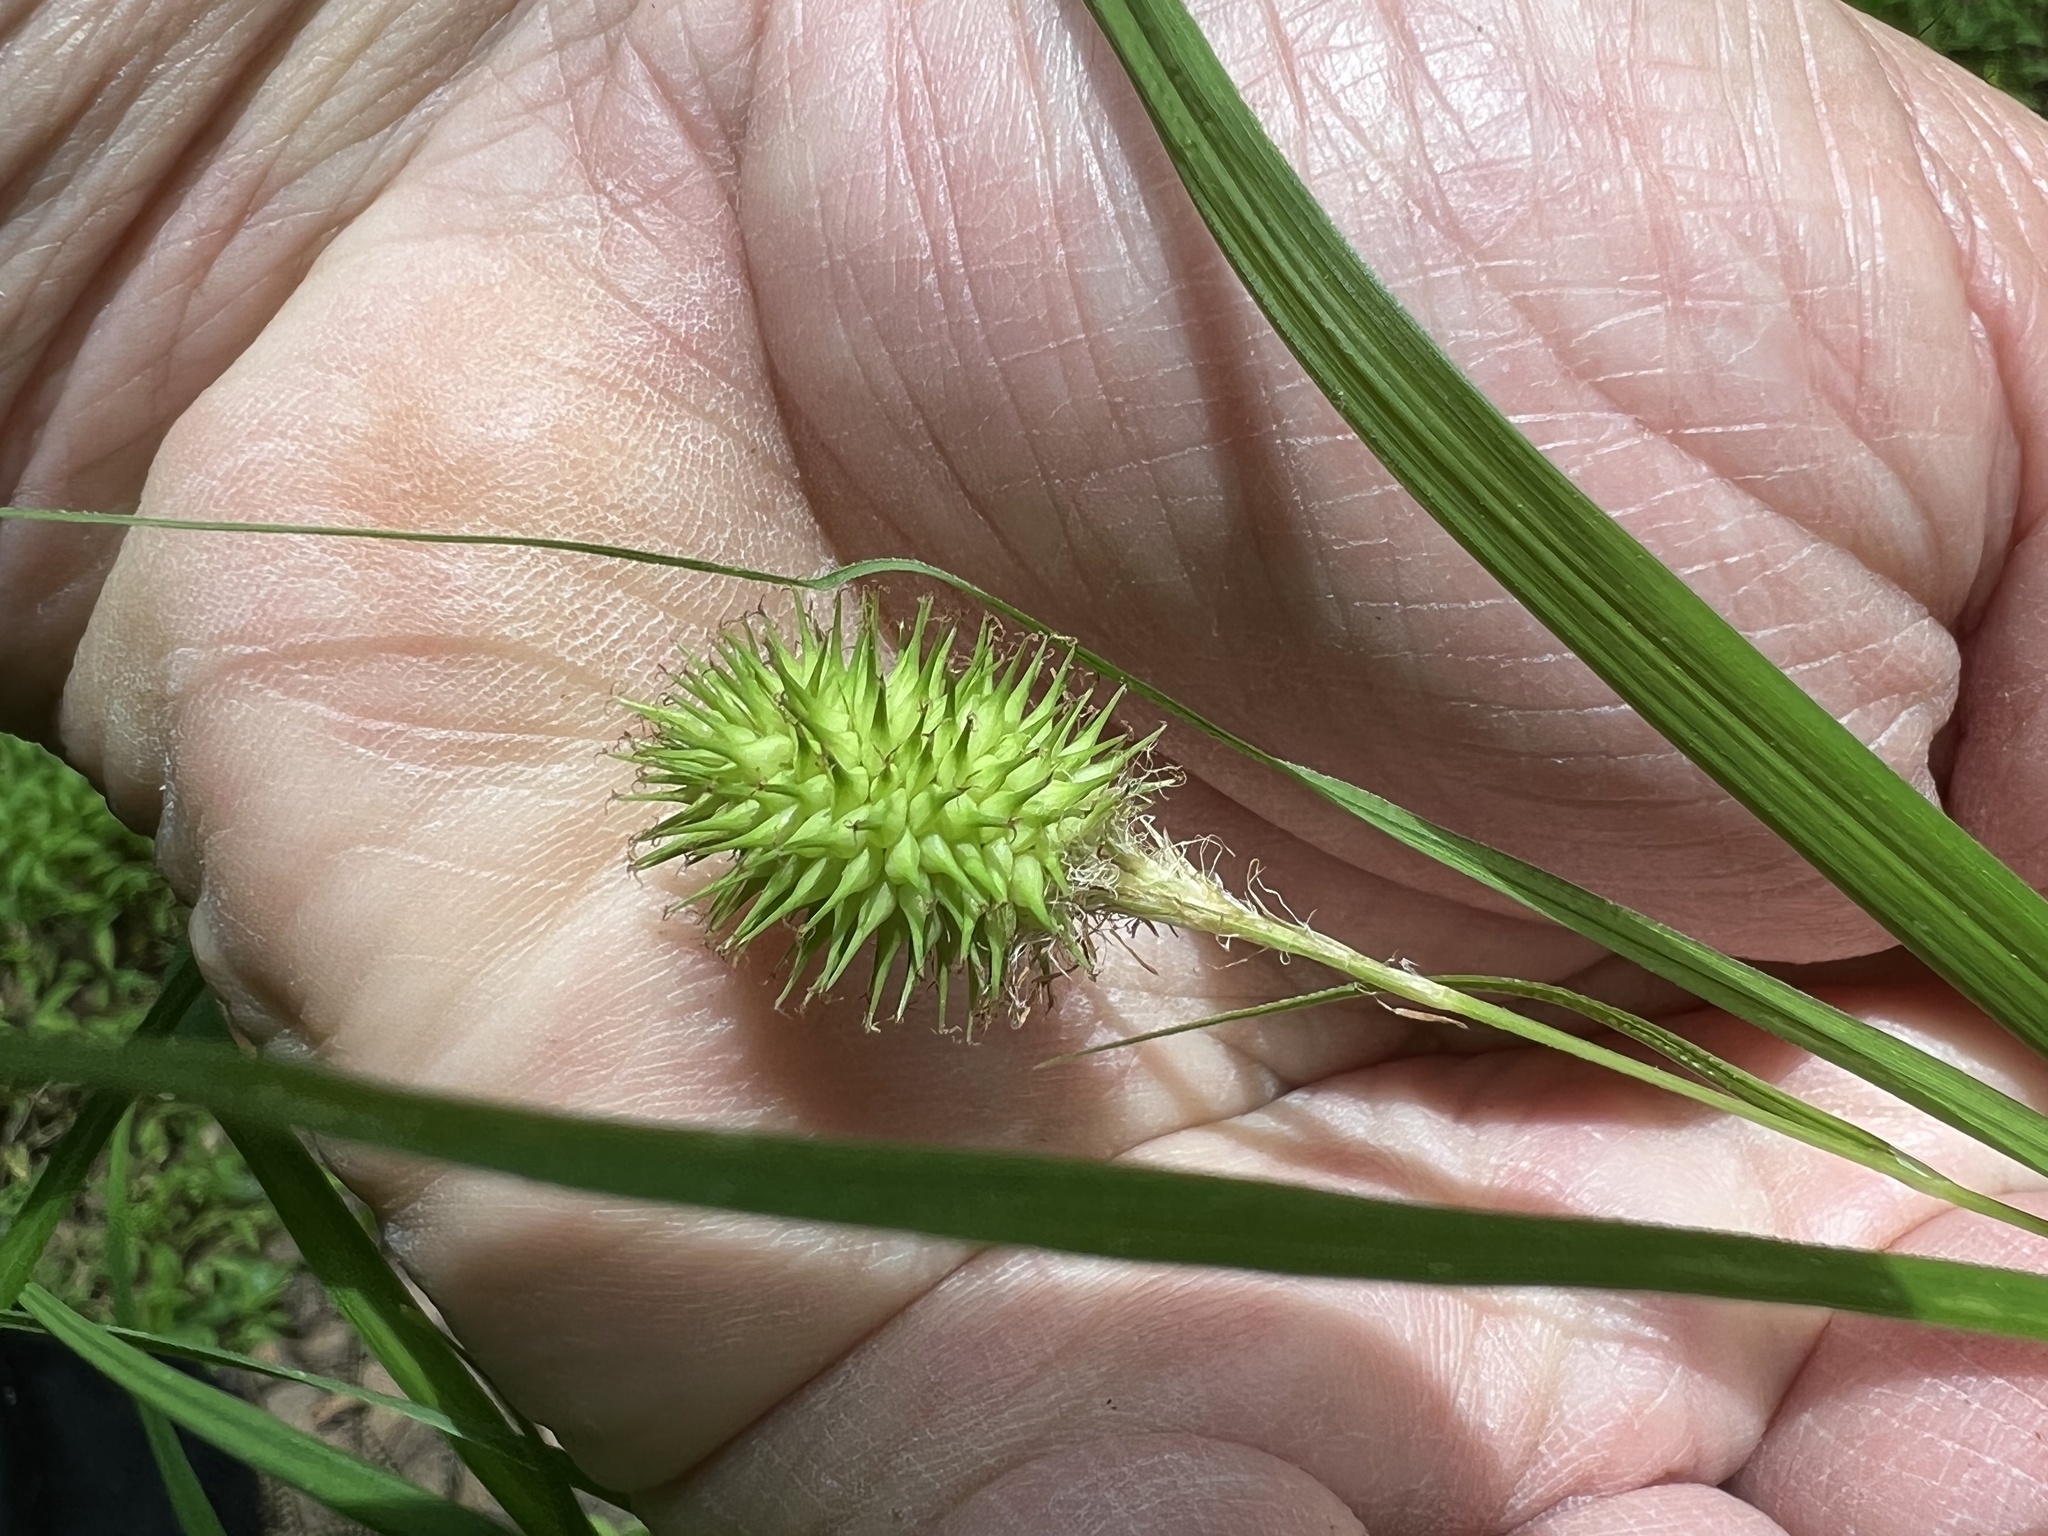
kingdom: Plantae
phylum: Tracheophyta
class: Liliopsida
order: Poales
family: Cyperaceae
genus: Carex
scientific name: Carex squarrosa
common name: Narrow-leaved cattail sedge
